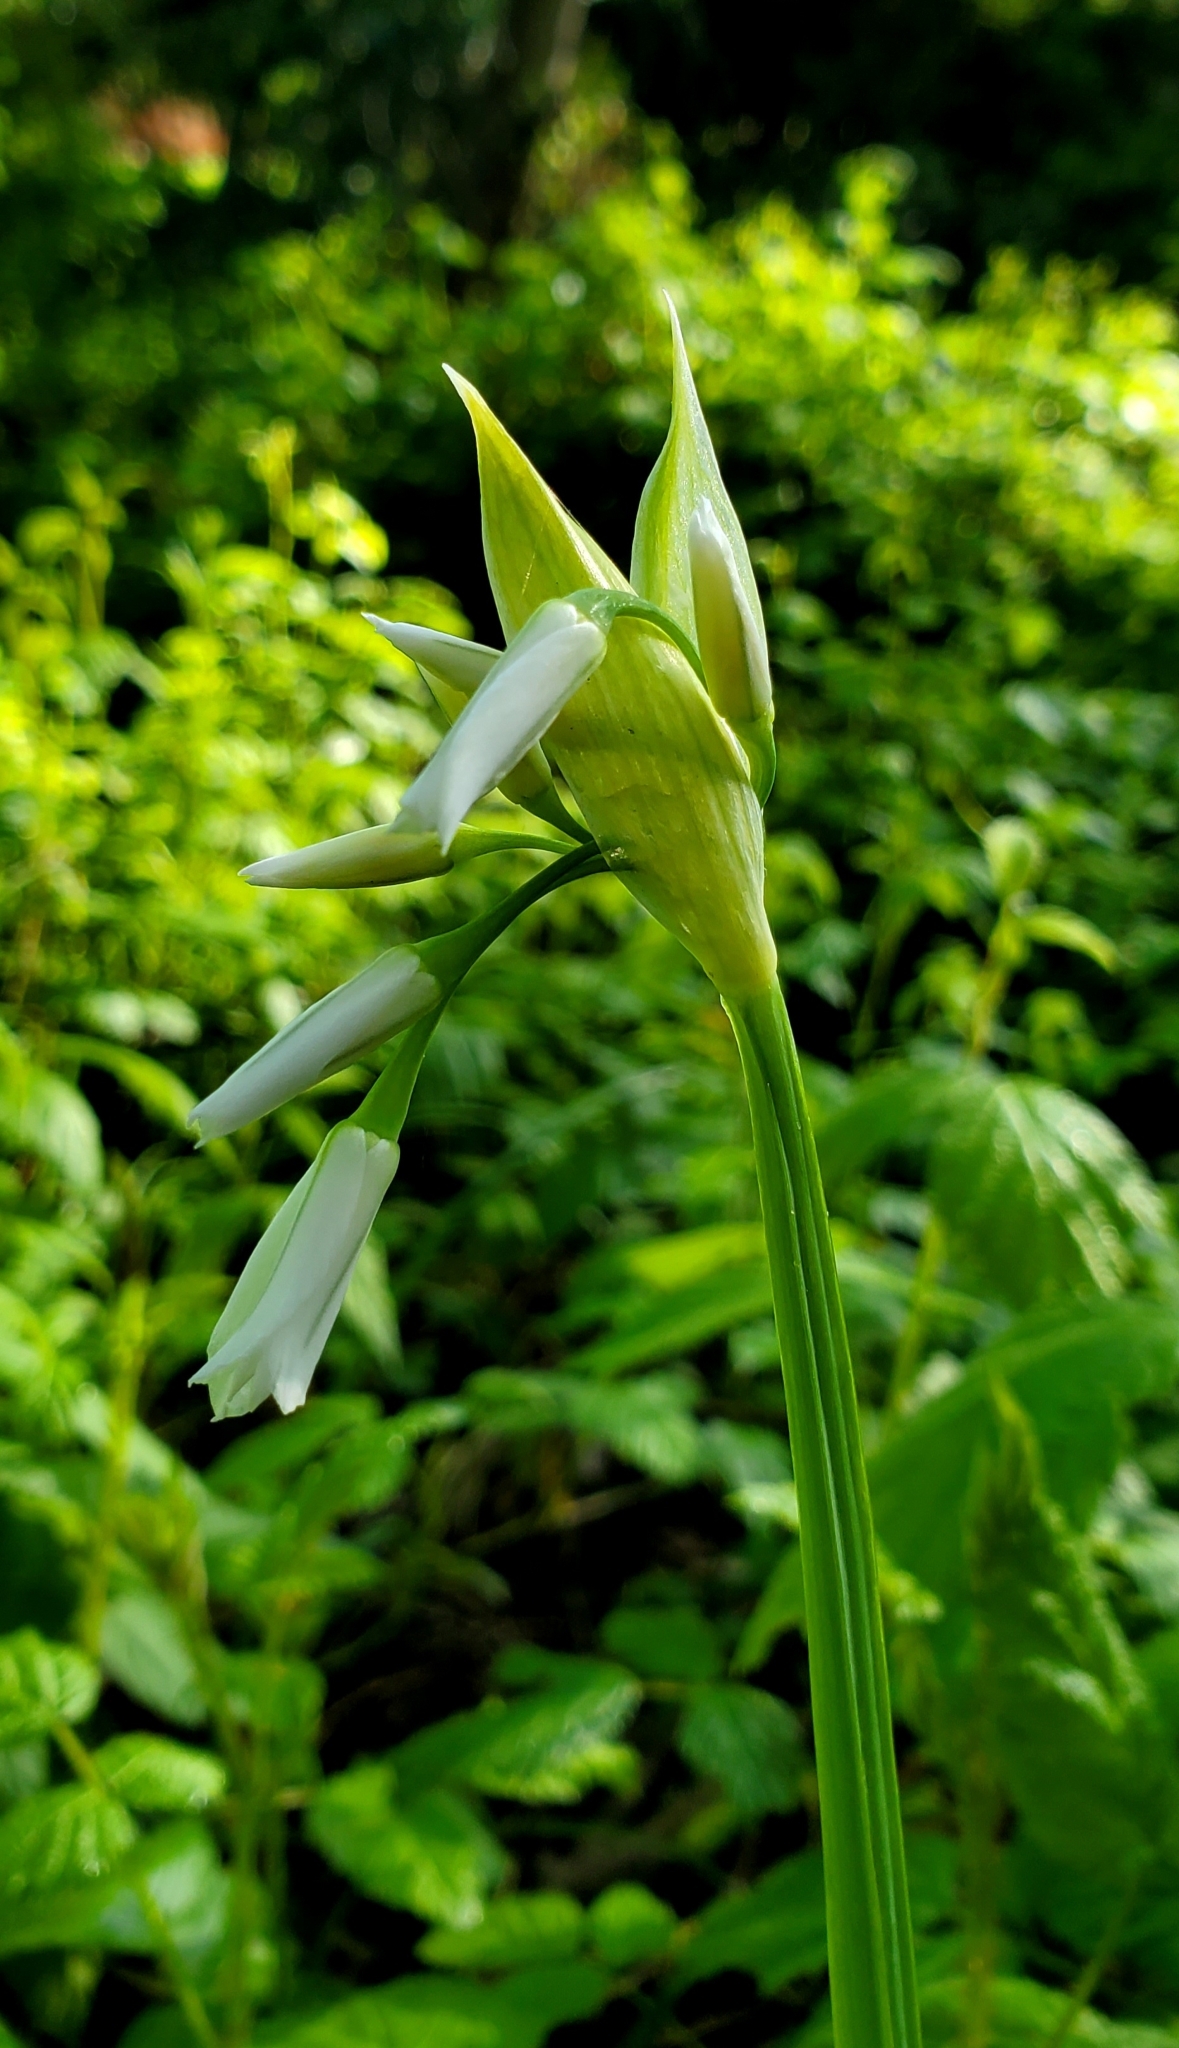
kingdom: Plantae
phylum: Tracheophyta
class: Liliopsida
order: Asparagales
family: Amaryllidaceae
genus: Allium
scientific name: Allium triquetrum
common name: Three-cornered garlic
